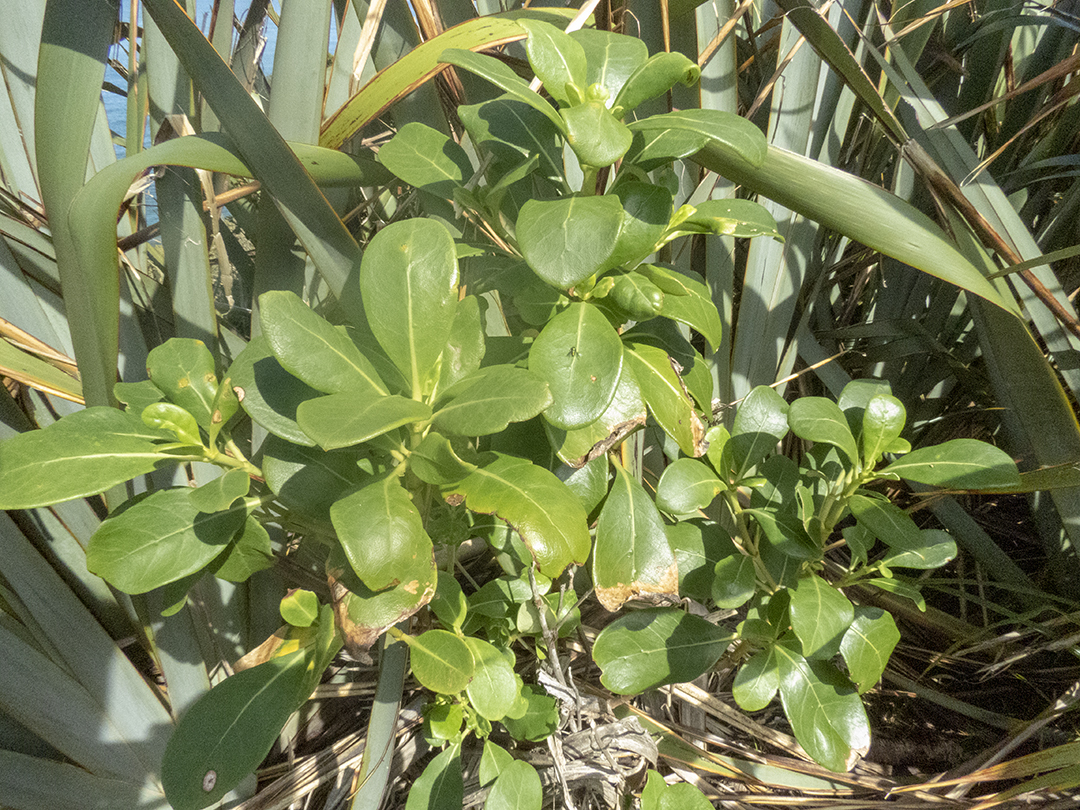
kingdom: Plantae
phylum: Tracheophyta
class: Magnoliopsida
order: Gentianales
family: Rubiaceae
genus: Coprosma
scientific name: Coprosma lucida
